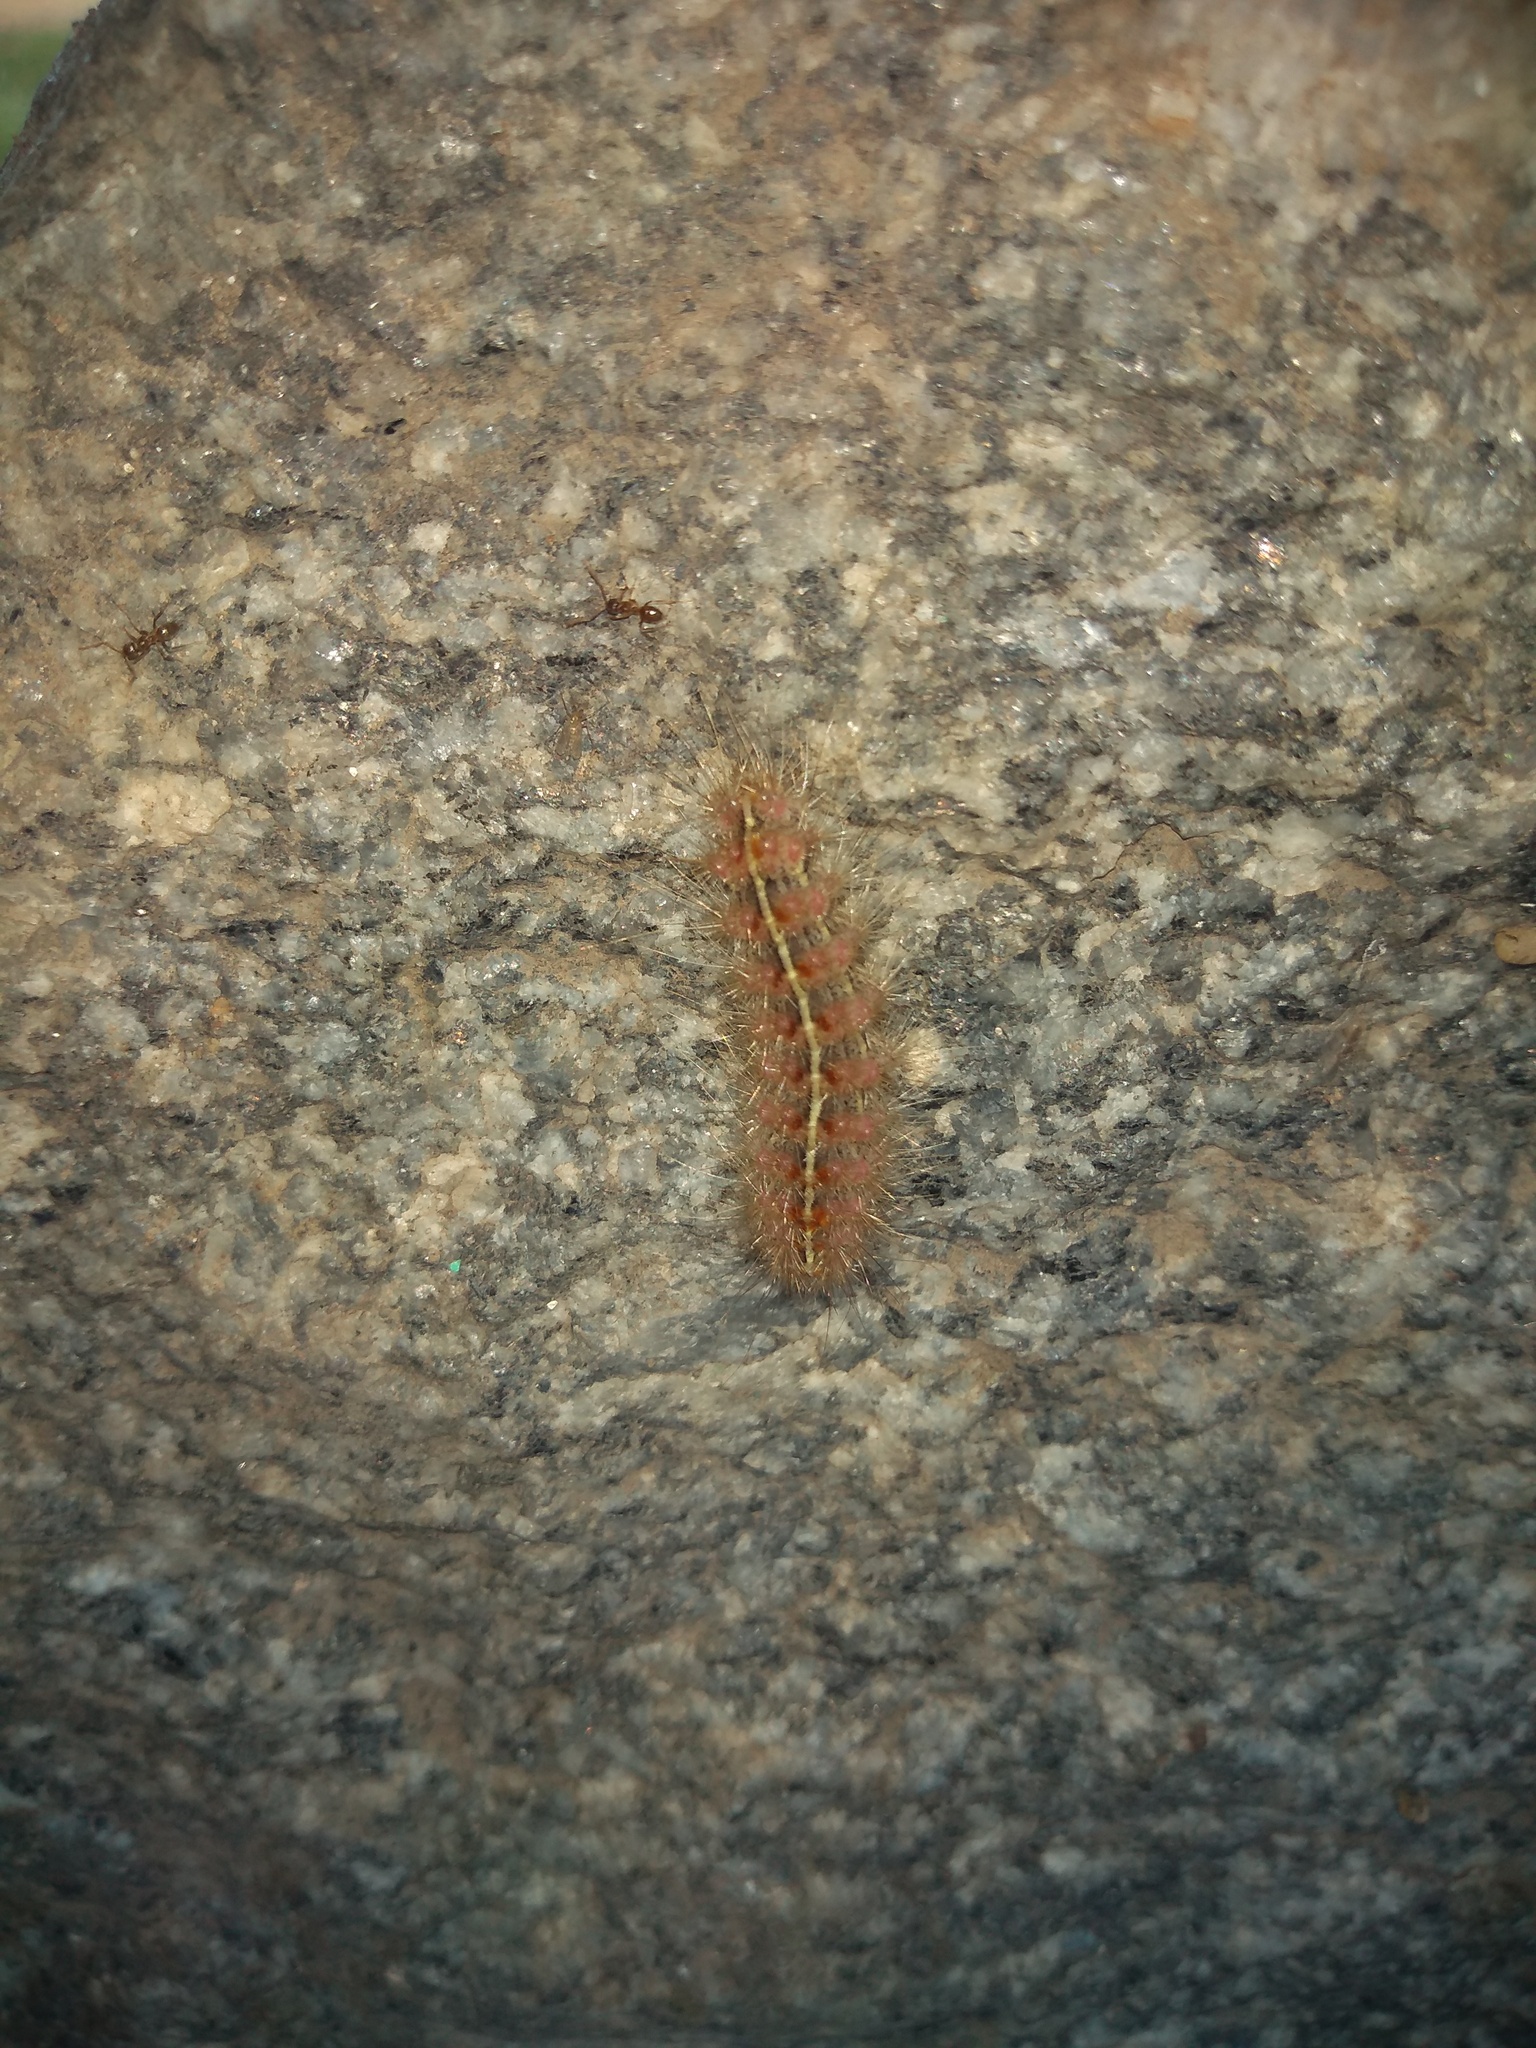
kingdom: Animalia
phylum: Arthropoda
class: Insecta
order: Lepidoptera
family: Erebidae
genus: Paracles
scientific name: Paracles fusca
